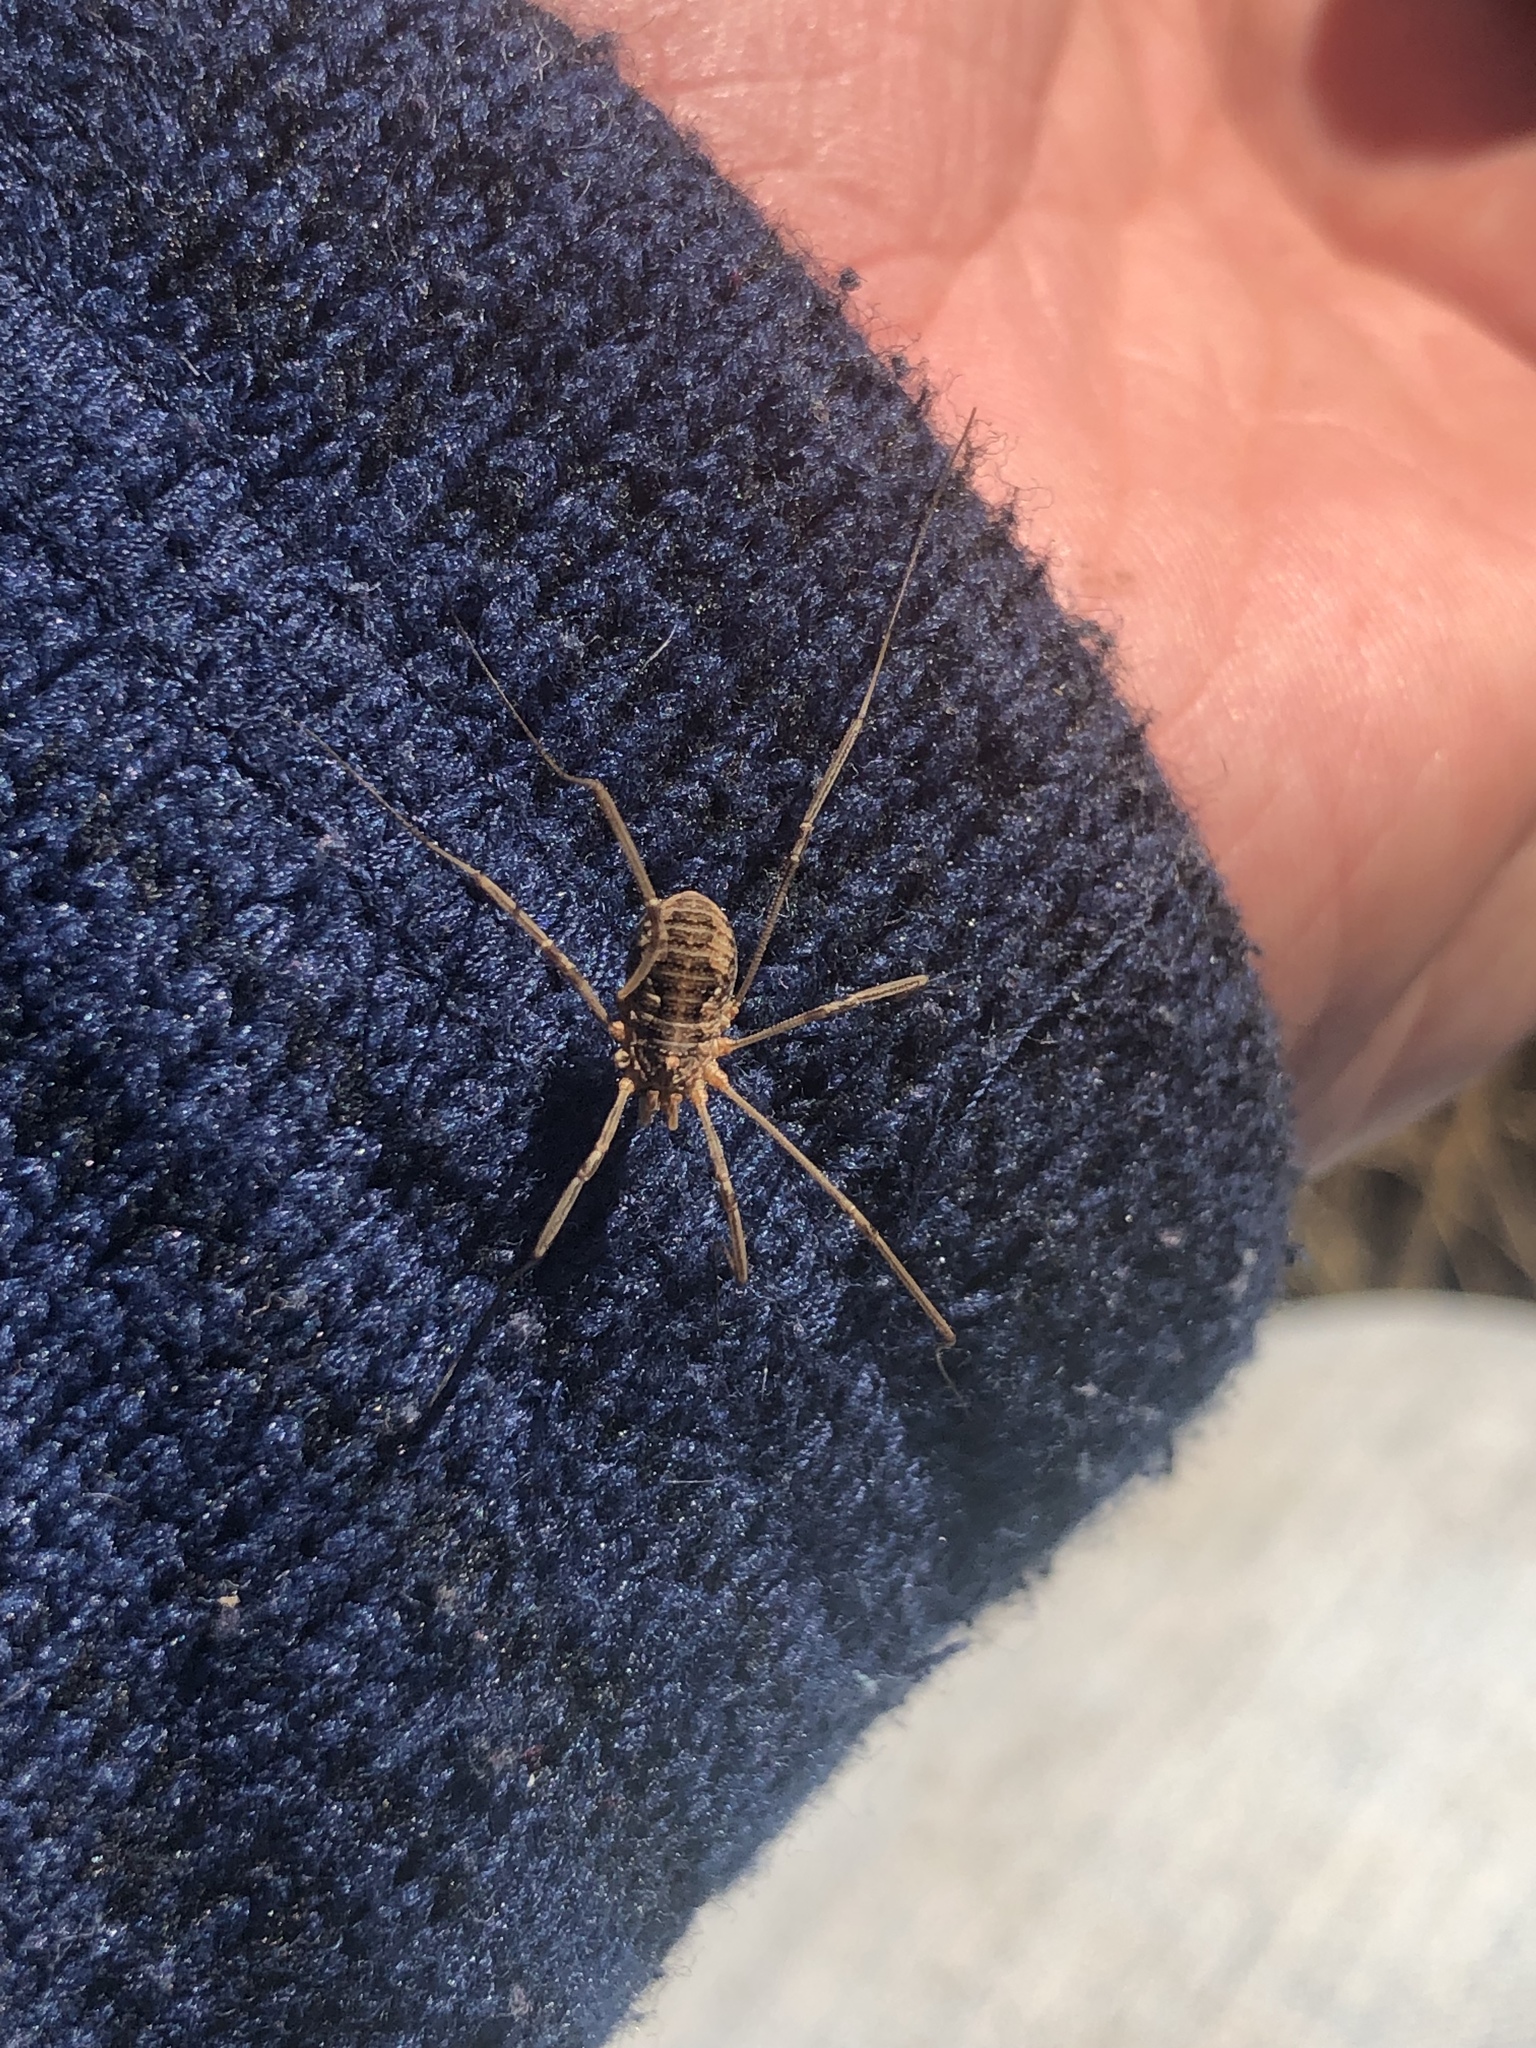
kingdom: Animalia
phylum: Arthropoda
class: Arachnida
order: Opiliones
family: Phalangiidae
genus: Phalangium
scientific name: Phalangium opilio
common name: Daddy longleg
